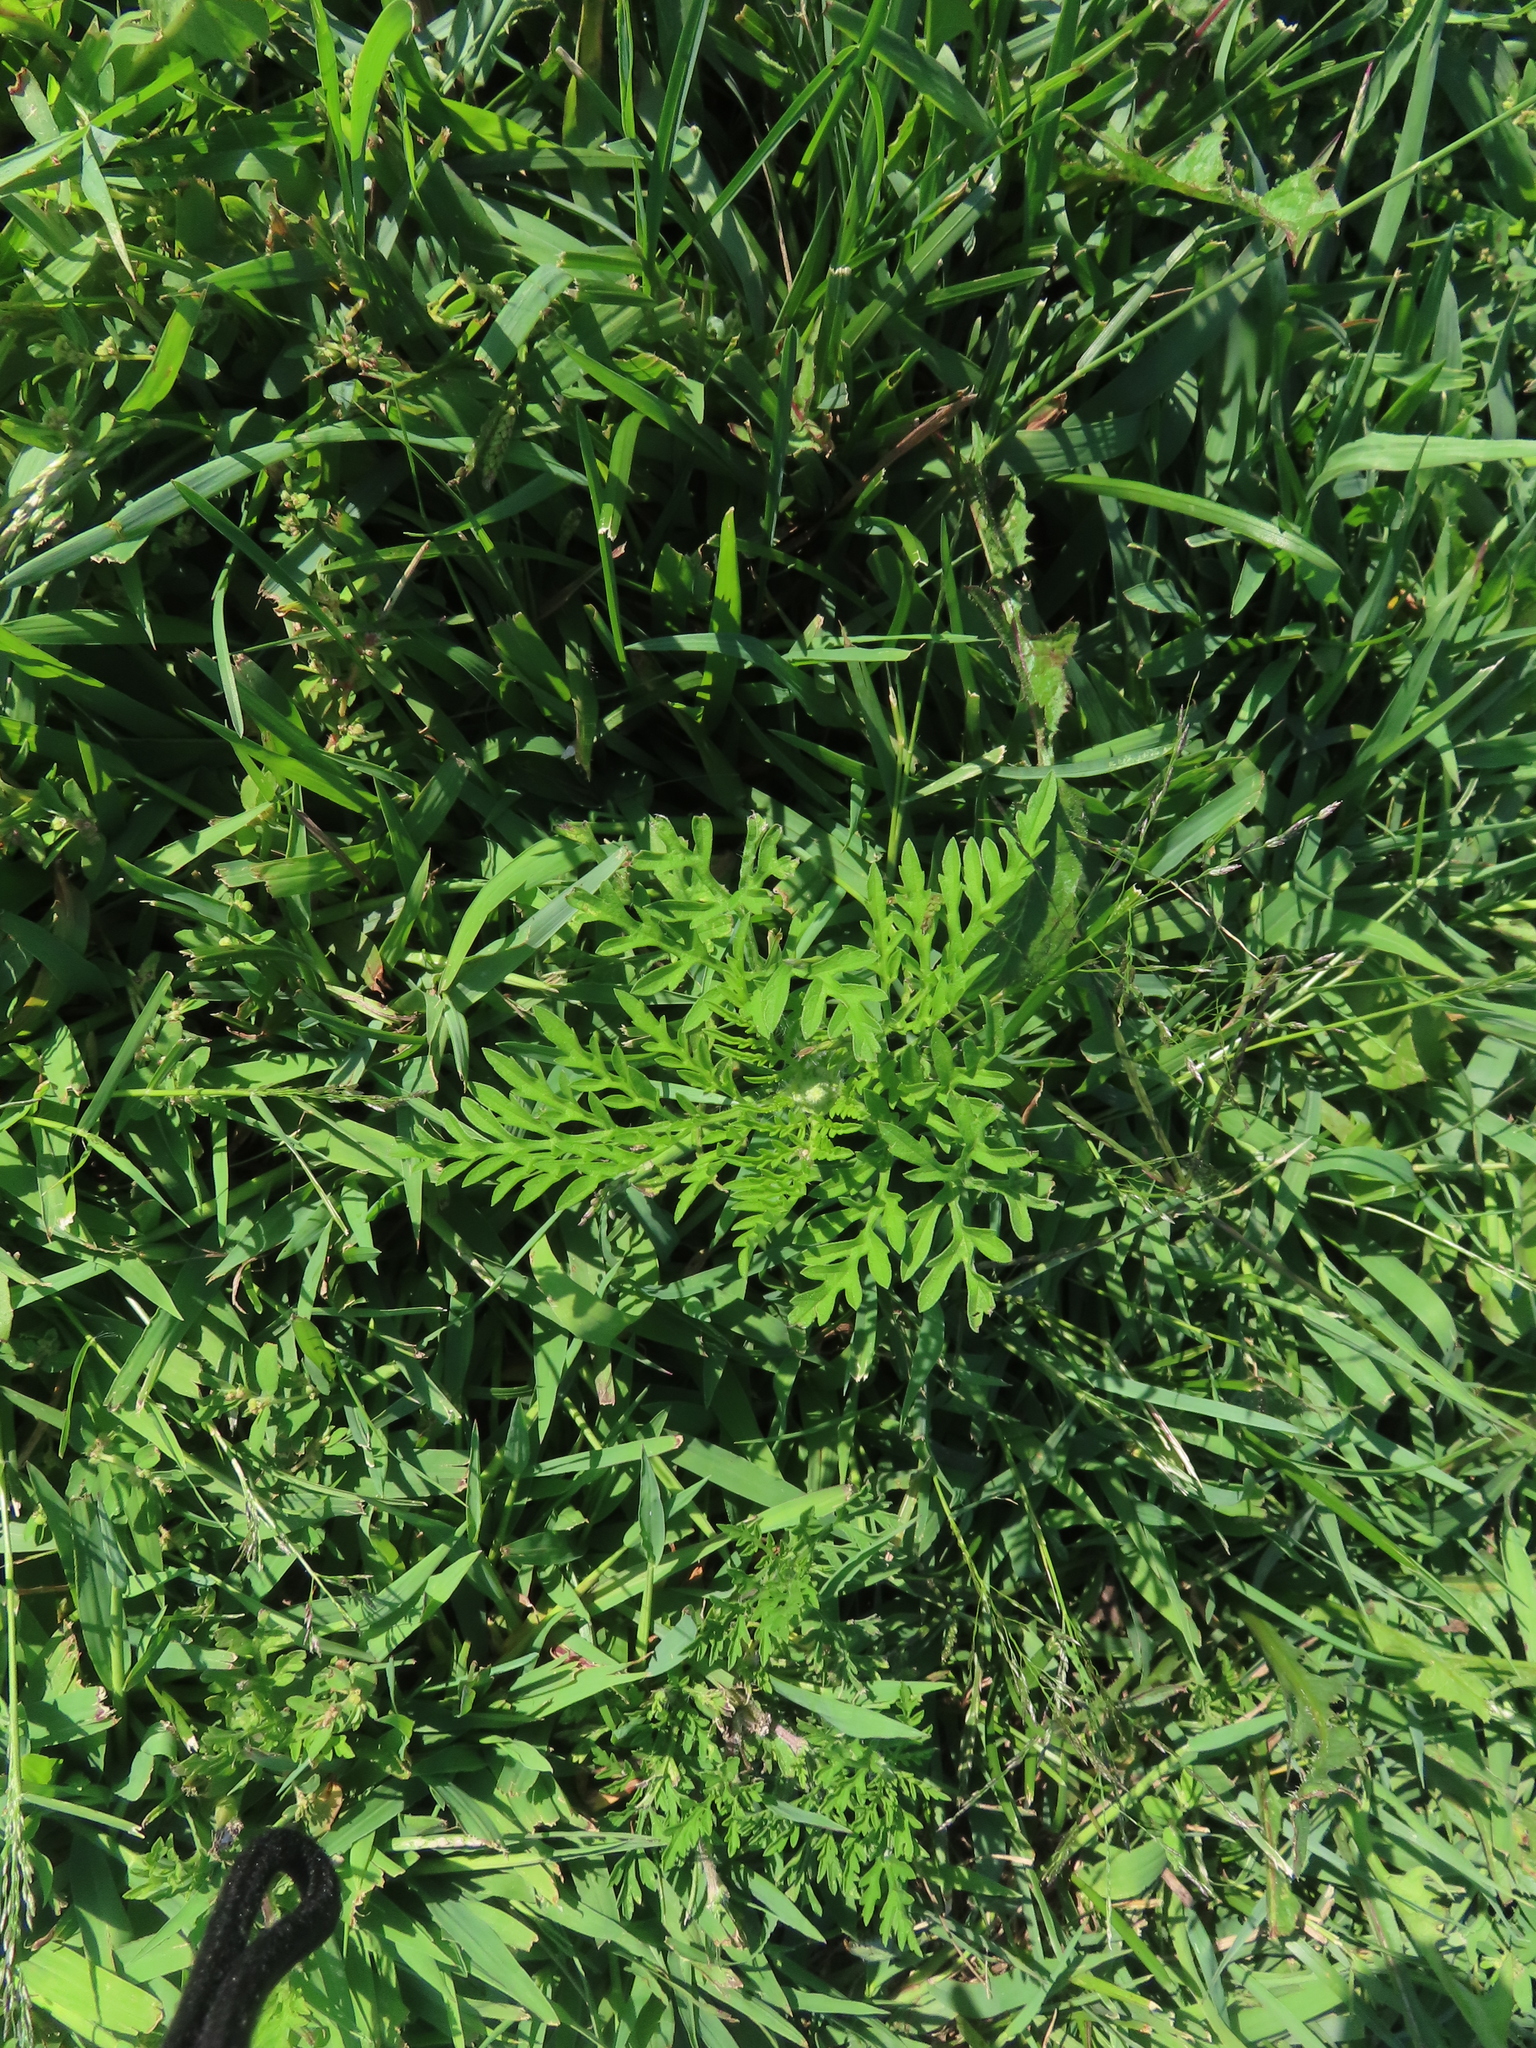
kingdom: Plantae
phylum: Tracheophyta
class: Magnoliopsida
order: Asterales
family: Asteraceae
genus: Ambrosia
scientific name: Ambrosia artemisiifolia
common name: Annual ragweed
